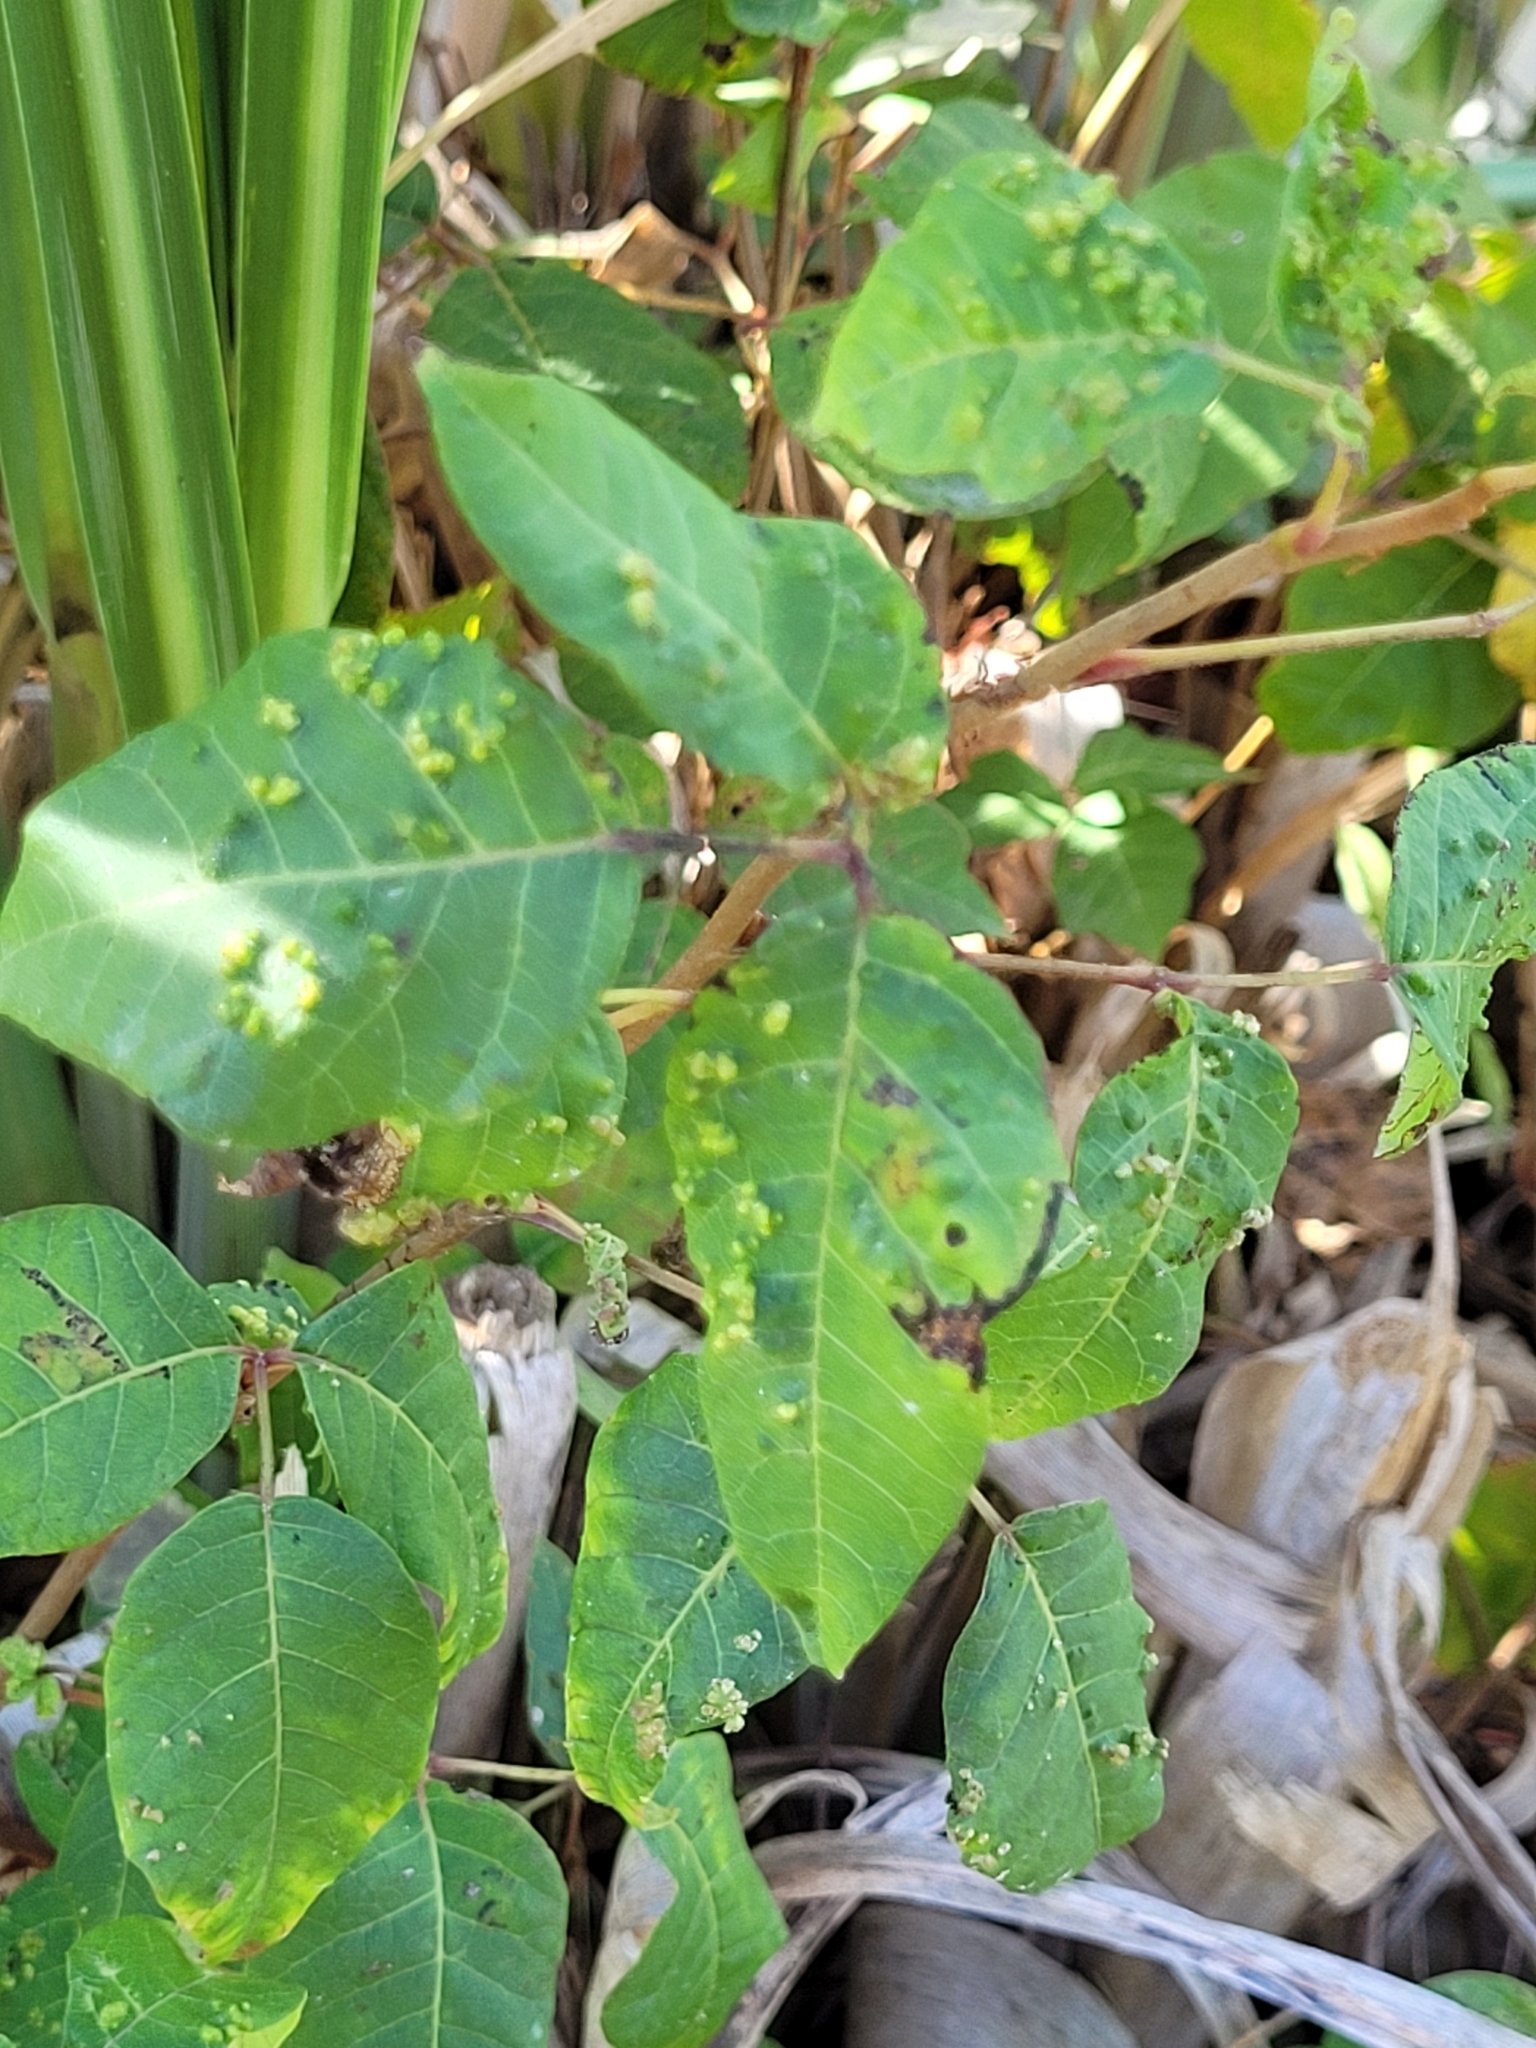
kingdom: Animalia
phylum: Arthropoda
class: Arachnida
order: Trombidiformes
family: Eriophyidae
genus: Aculops
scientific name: Aculops
